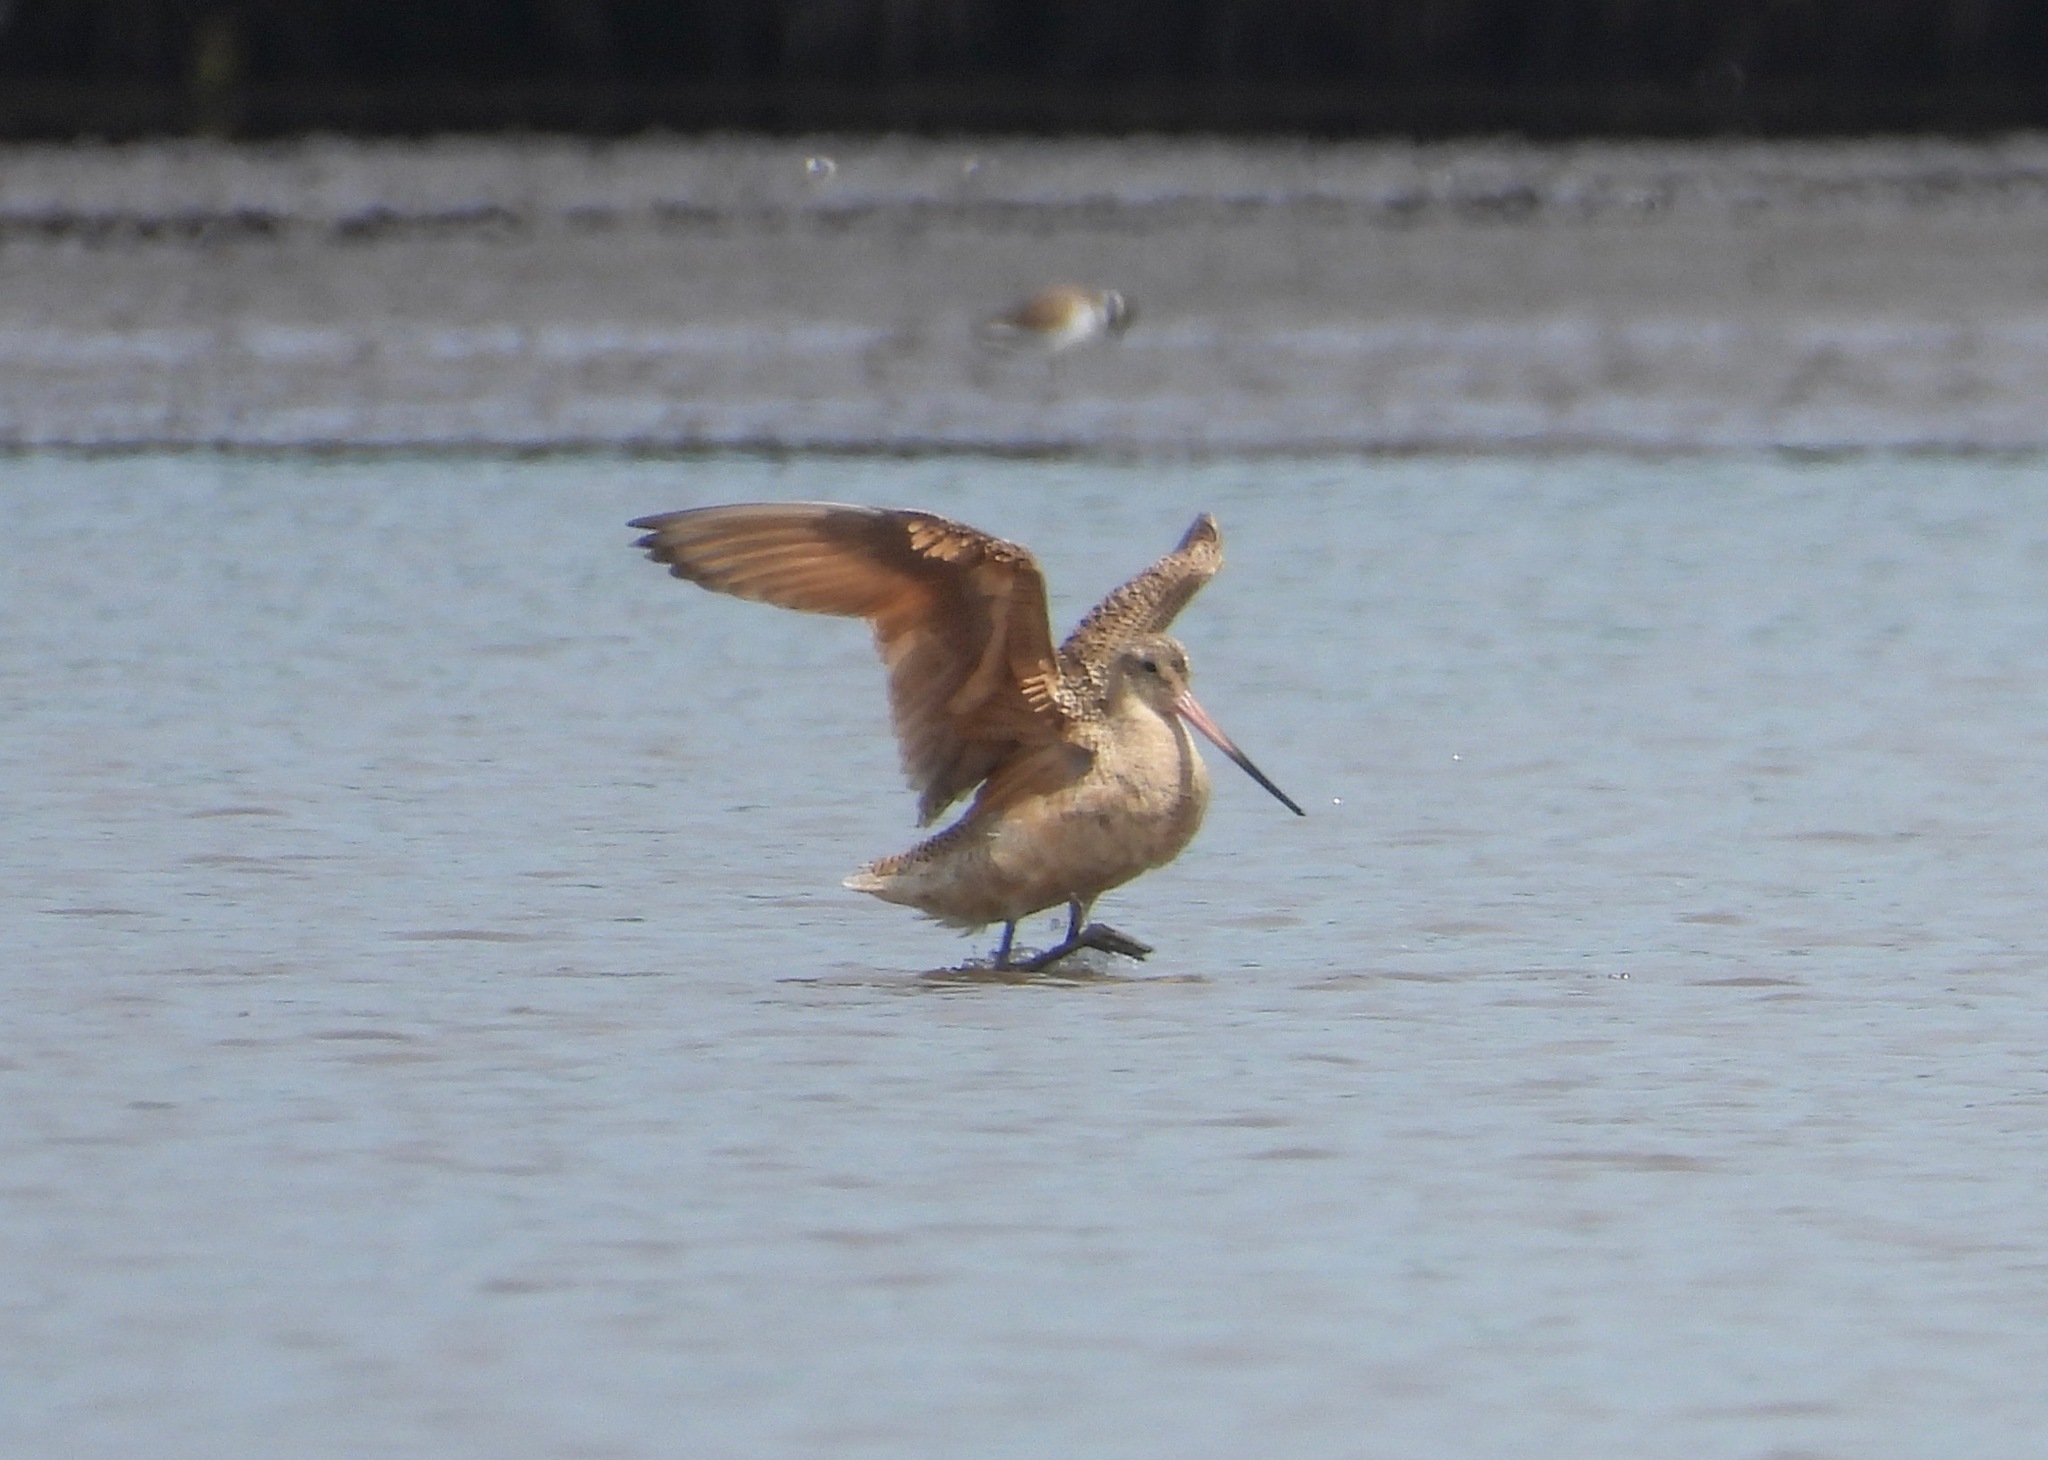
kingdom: Animalia
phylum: Chordata
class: Aves
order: Charadriiformes
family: Scolopacidae
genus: Limosa
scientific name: Limosa fedoa
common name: Marbled godwit
